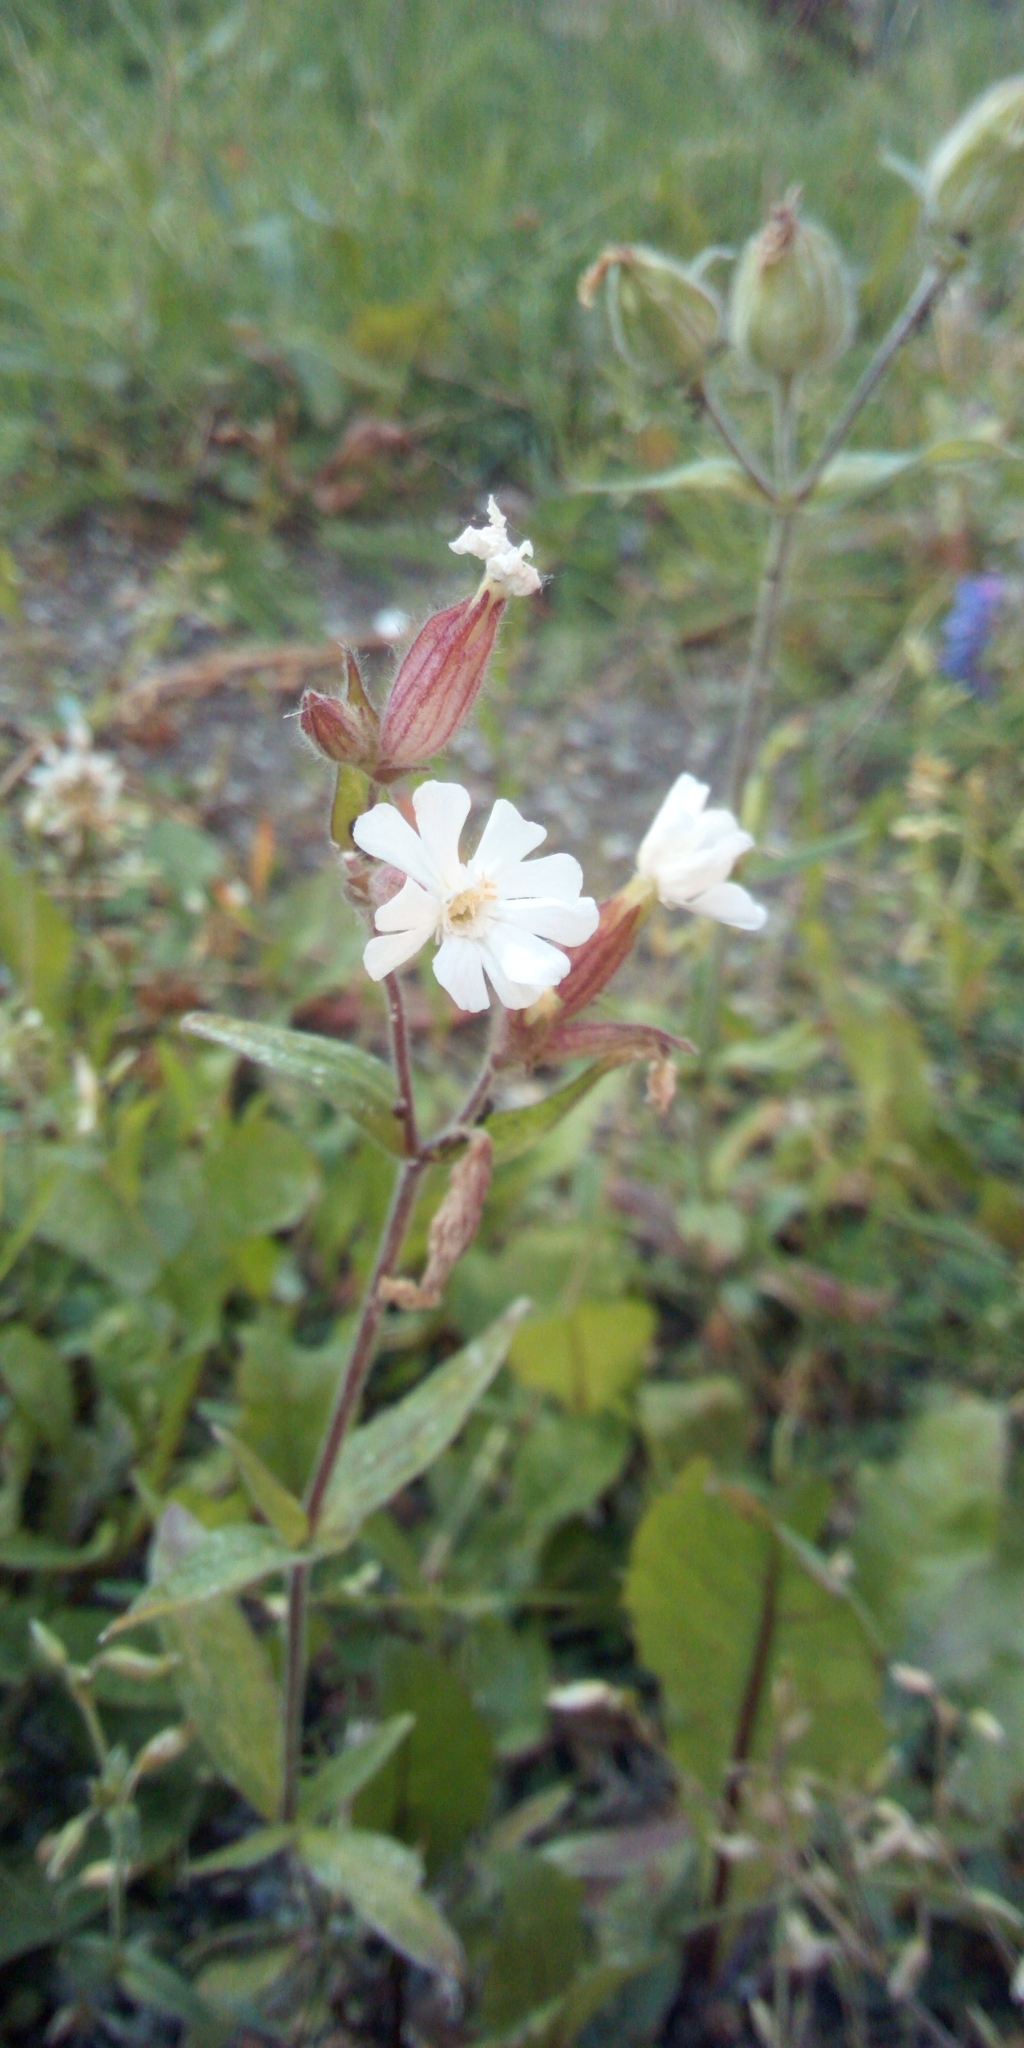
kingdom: Plantae
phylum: Tracheophyta
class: Magnoliopsida
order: Caryophyllales
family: Caryophyllaceae
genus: Silene
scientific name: Silene latifolia
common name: White campion
